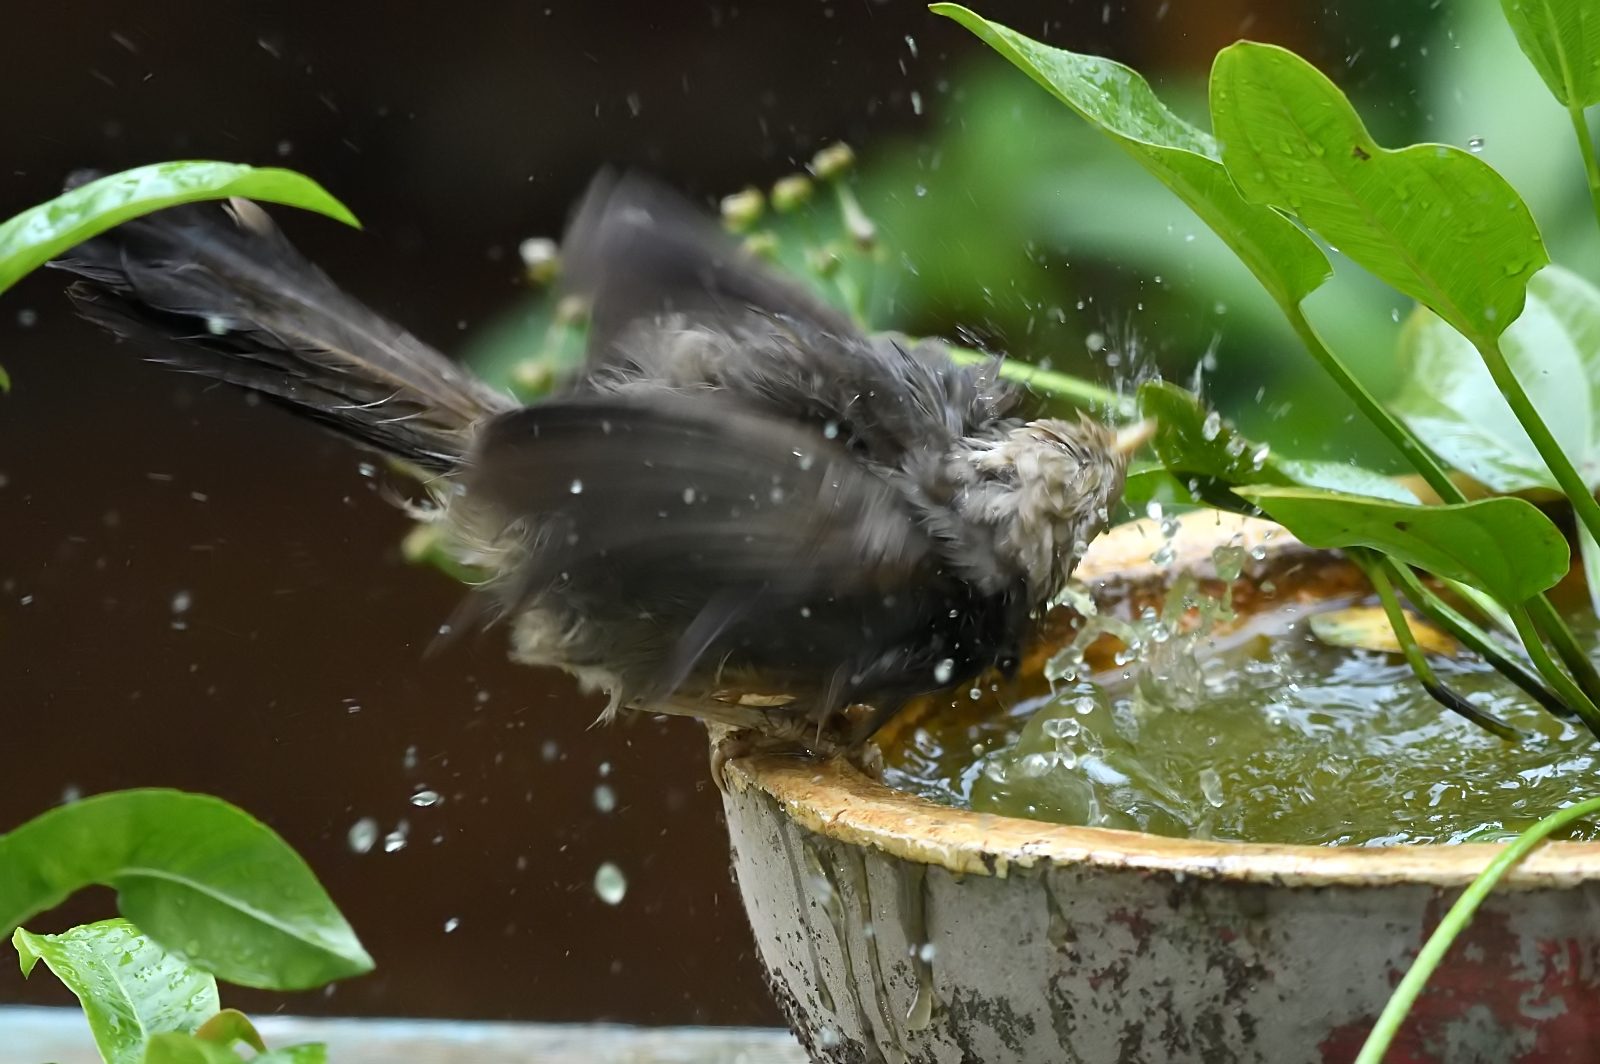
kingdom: Animalia
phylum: Chordata
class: Aves
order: Passeriformes
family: Leiothrichidae
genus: Turdoides
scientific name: Turdoides affinis
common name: Yellow-billed babbler
